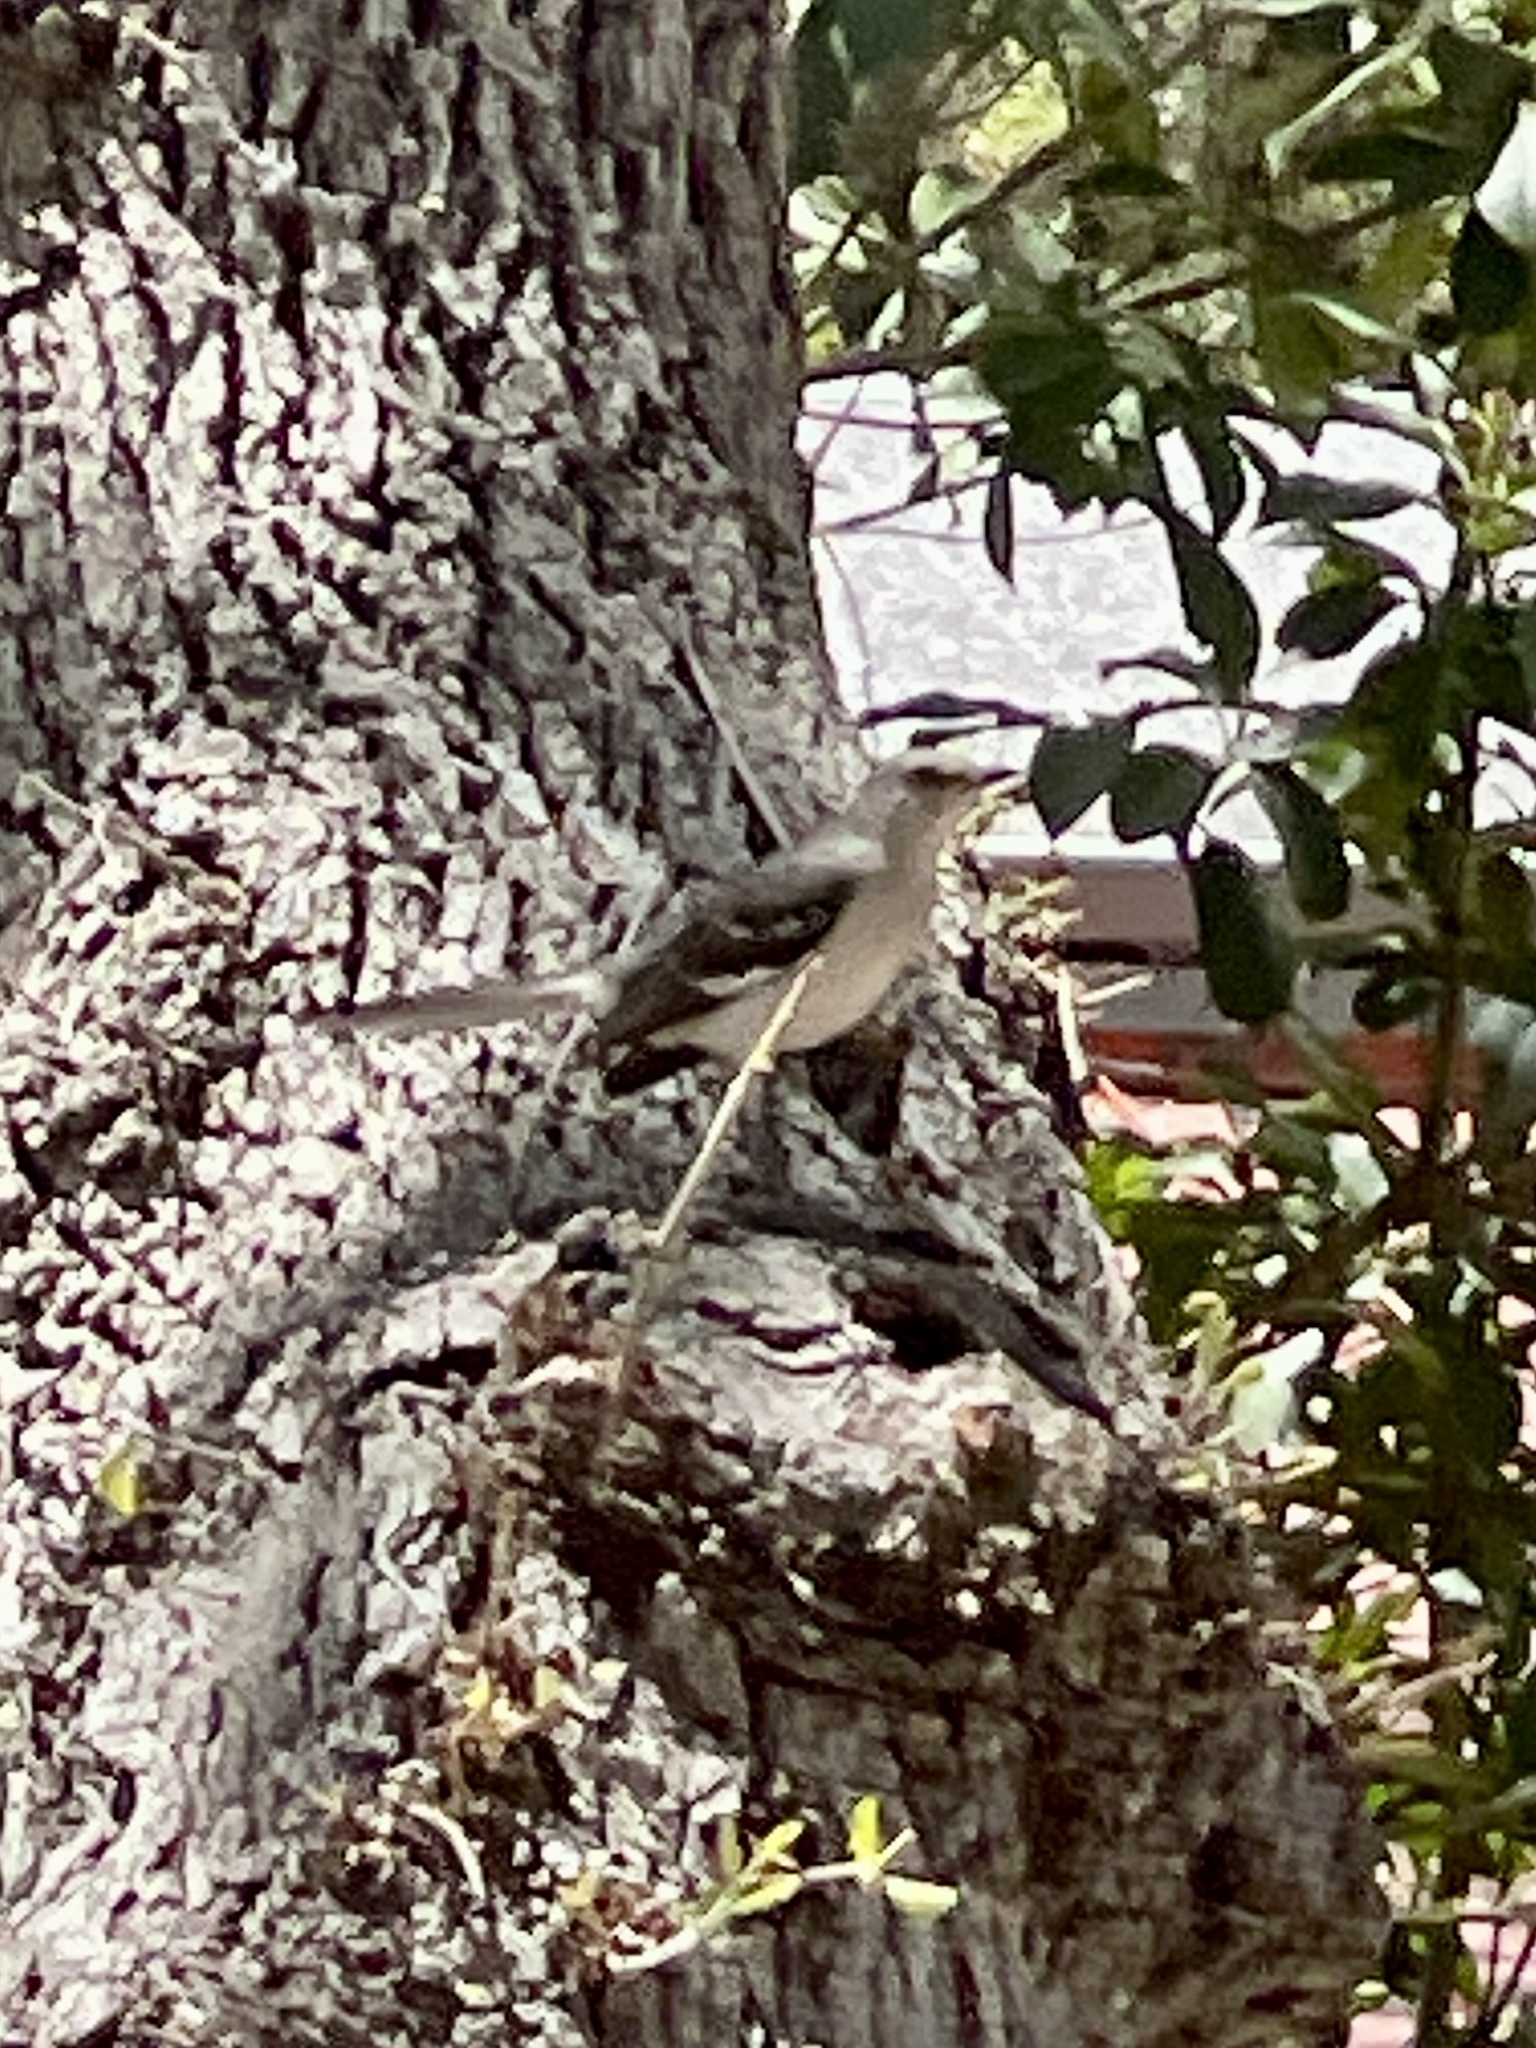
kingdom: Animalia
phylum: Chordata
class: Aves
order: Passeriformes
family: Mimidae
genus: Mimus
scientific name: Mimus polyglottos
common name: Northern mockingbird
